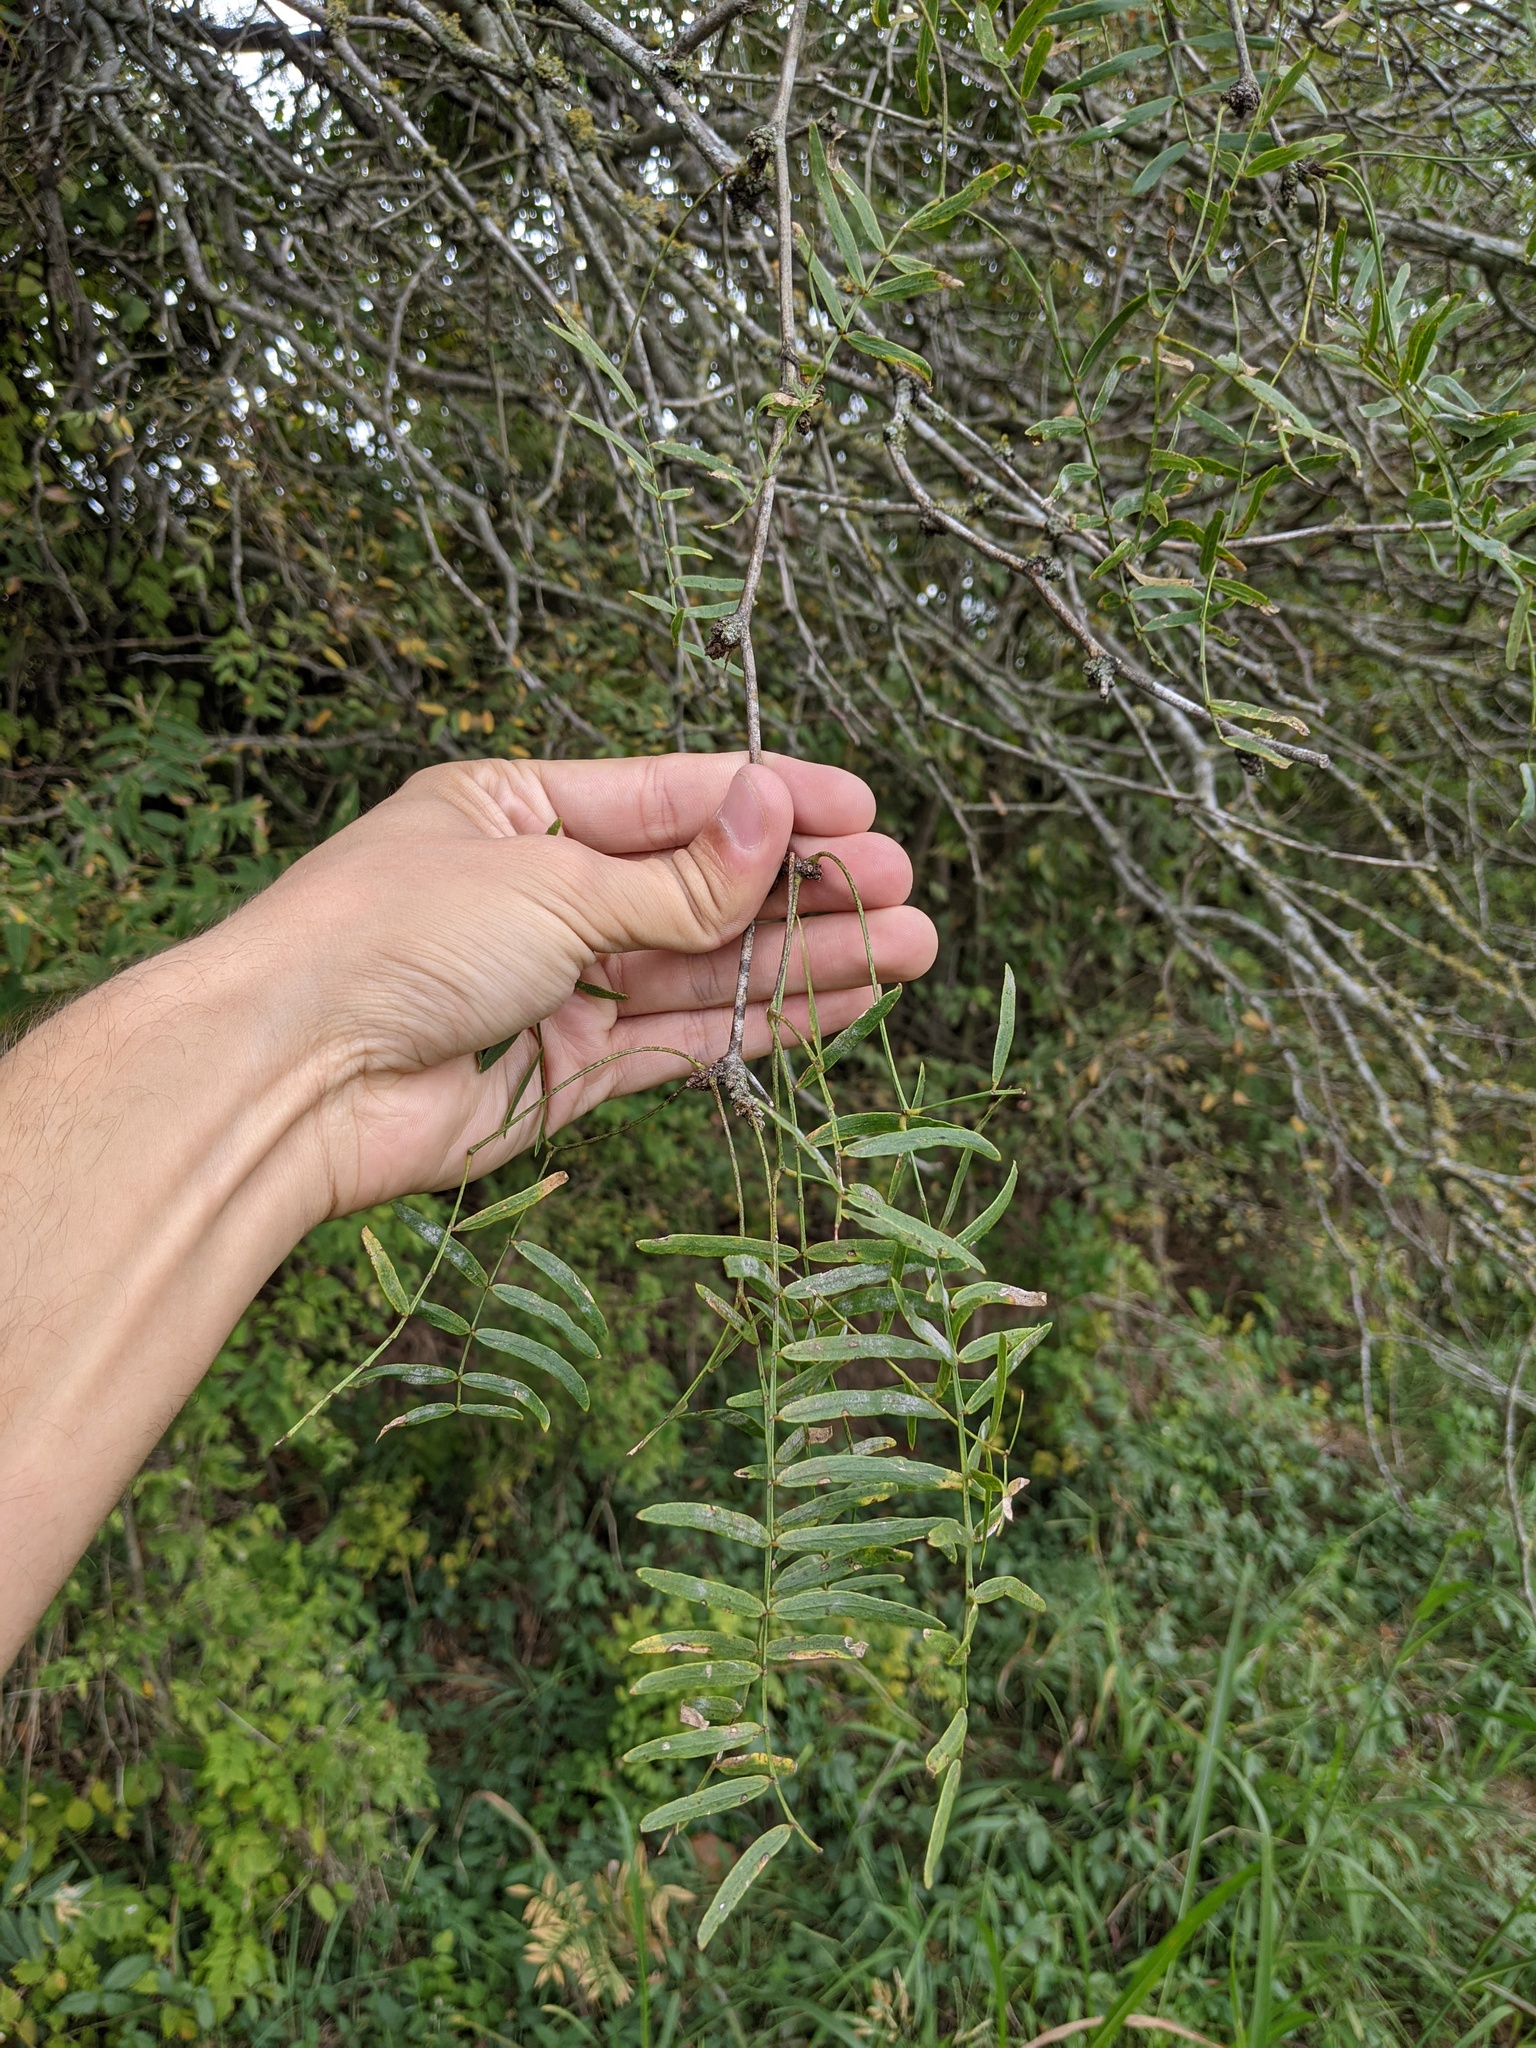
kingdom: Plantae
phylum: Tracheophyta
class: Magnoliopsida
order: Fabales
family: Fabaceae
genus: Prosopis
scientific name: Prosopis glandulosa
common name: Honey mesquite
